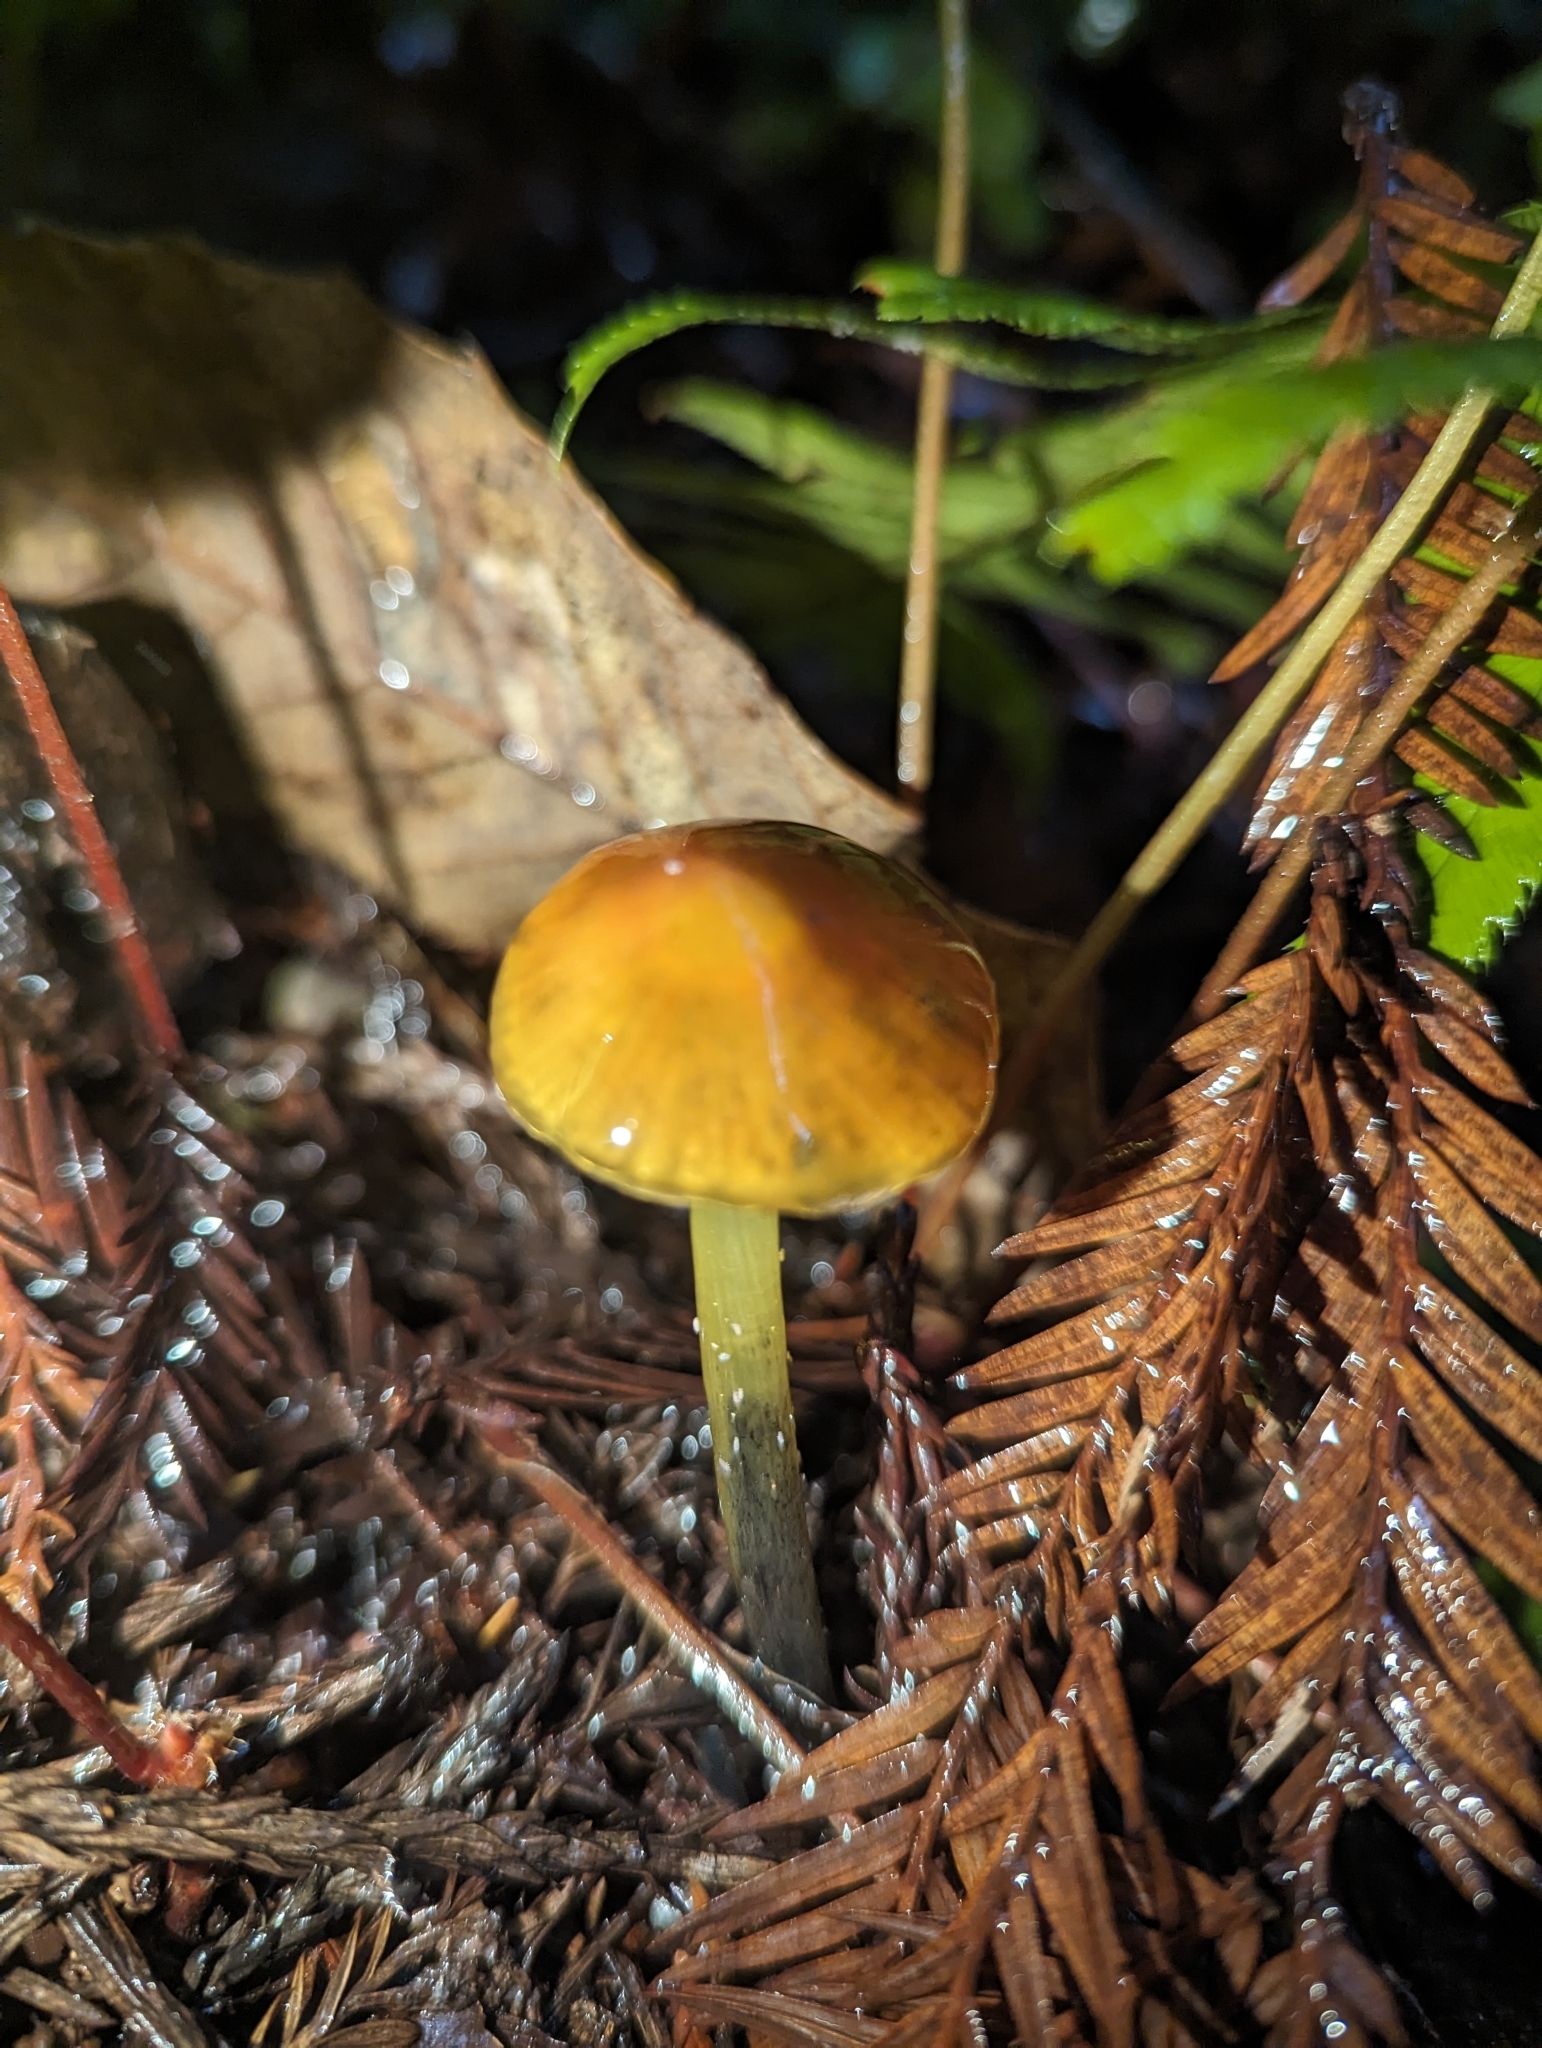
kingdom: Fungi
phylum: Basidiomycota
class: Agaricomycetes
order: Agaricales
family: Hygrophoraceae
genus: Hygrocybe
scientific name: Hygrocybe singeri
